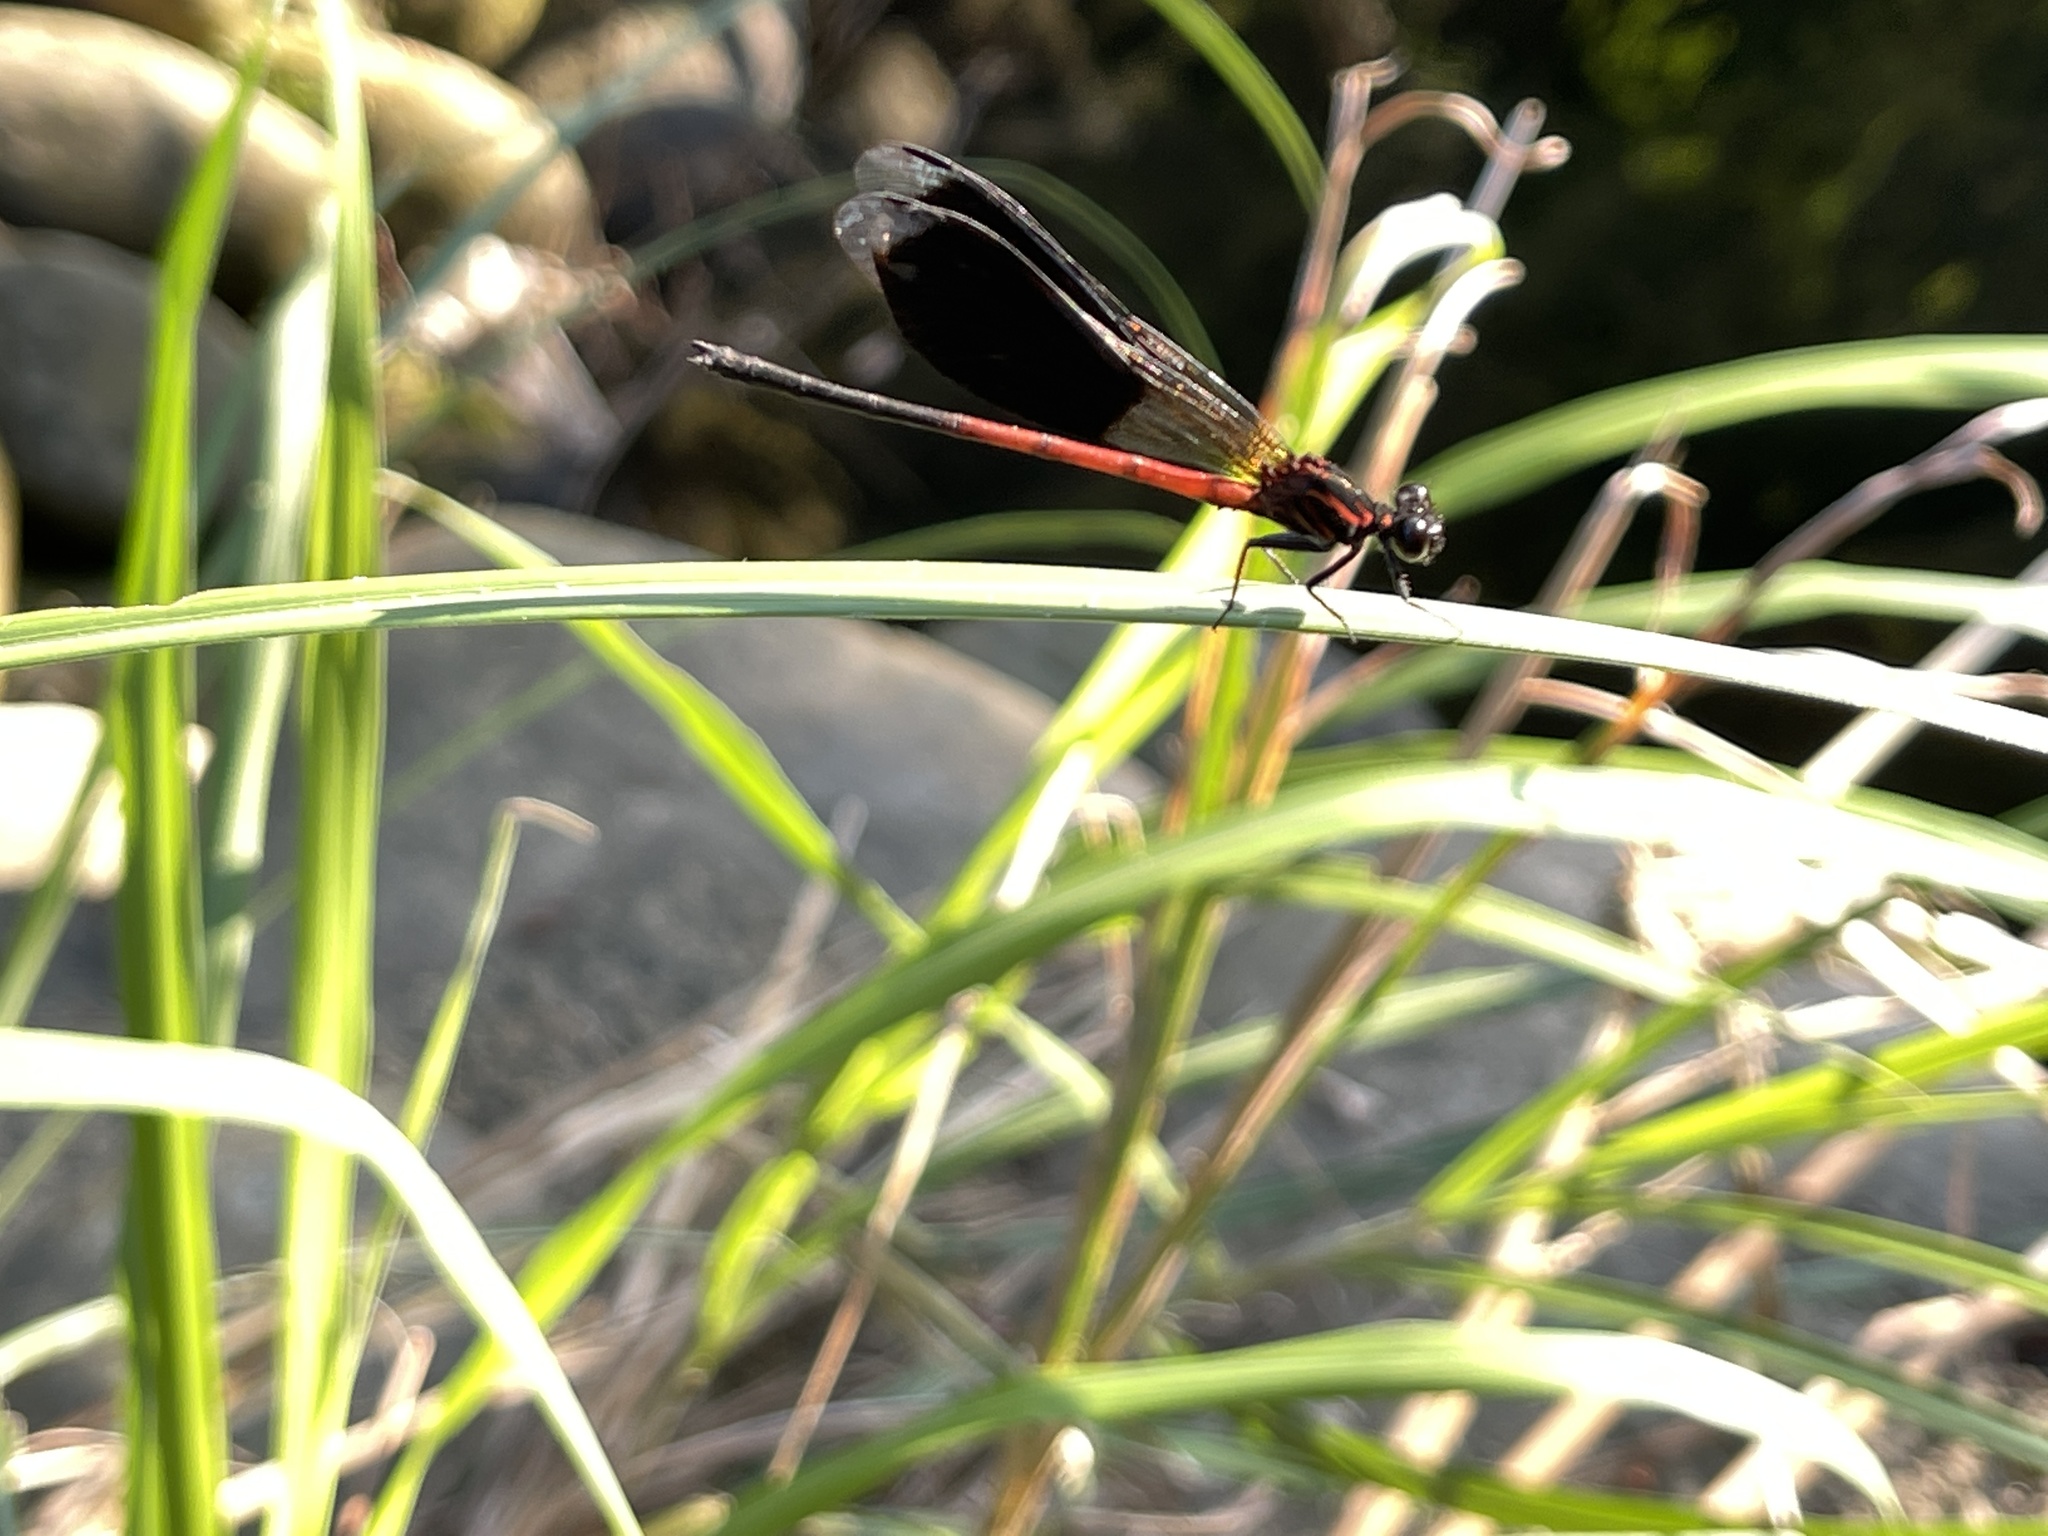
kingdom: Animalia
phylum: Arthropoda
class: Insecta
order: Odonata
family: Euphaeidae
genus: Euphaea
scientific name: Euphaea formosa
